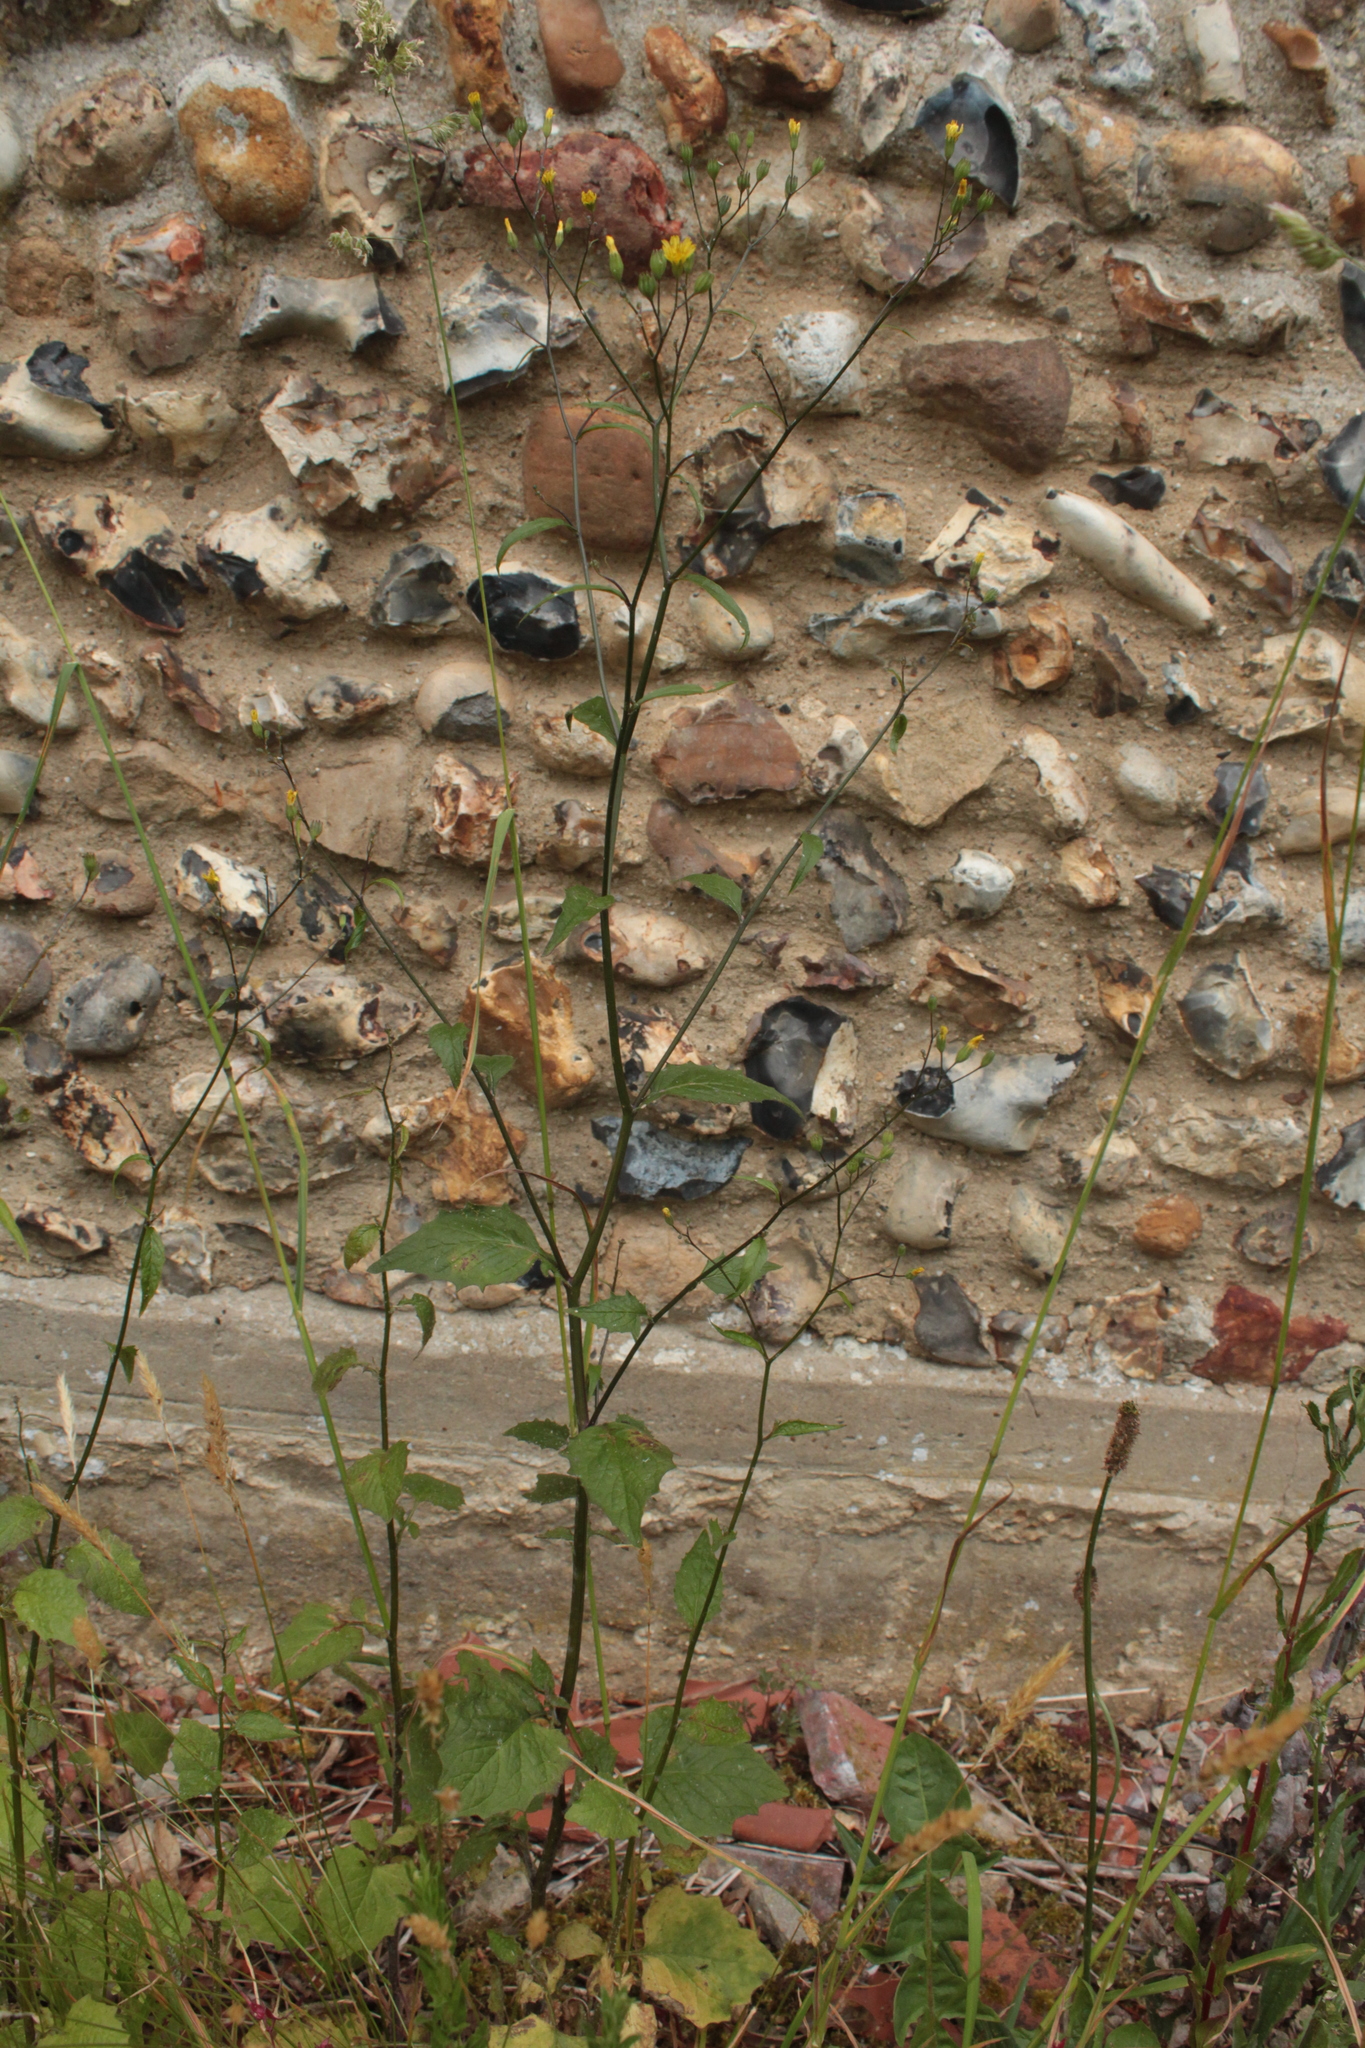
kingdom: Plantae
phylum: Tracheophyta
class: Magnoliopsida
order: Asterales
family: Asteraceae
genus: Lapsana
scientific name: Lapsana communis
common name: Nipplewort
